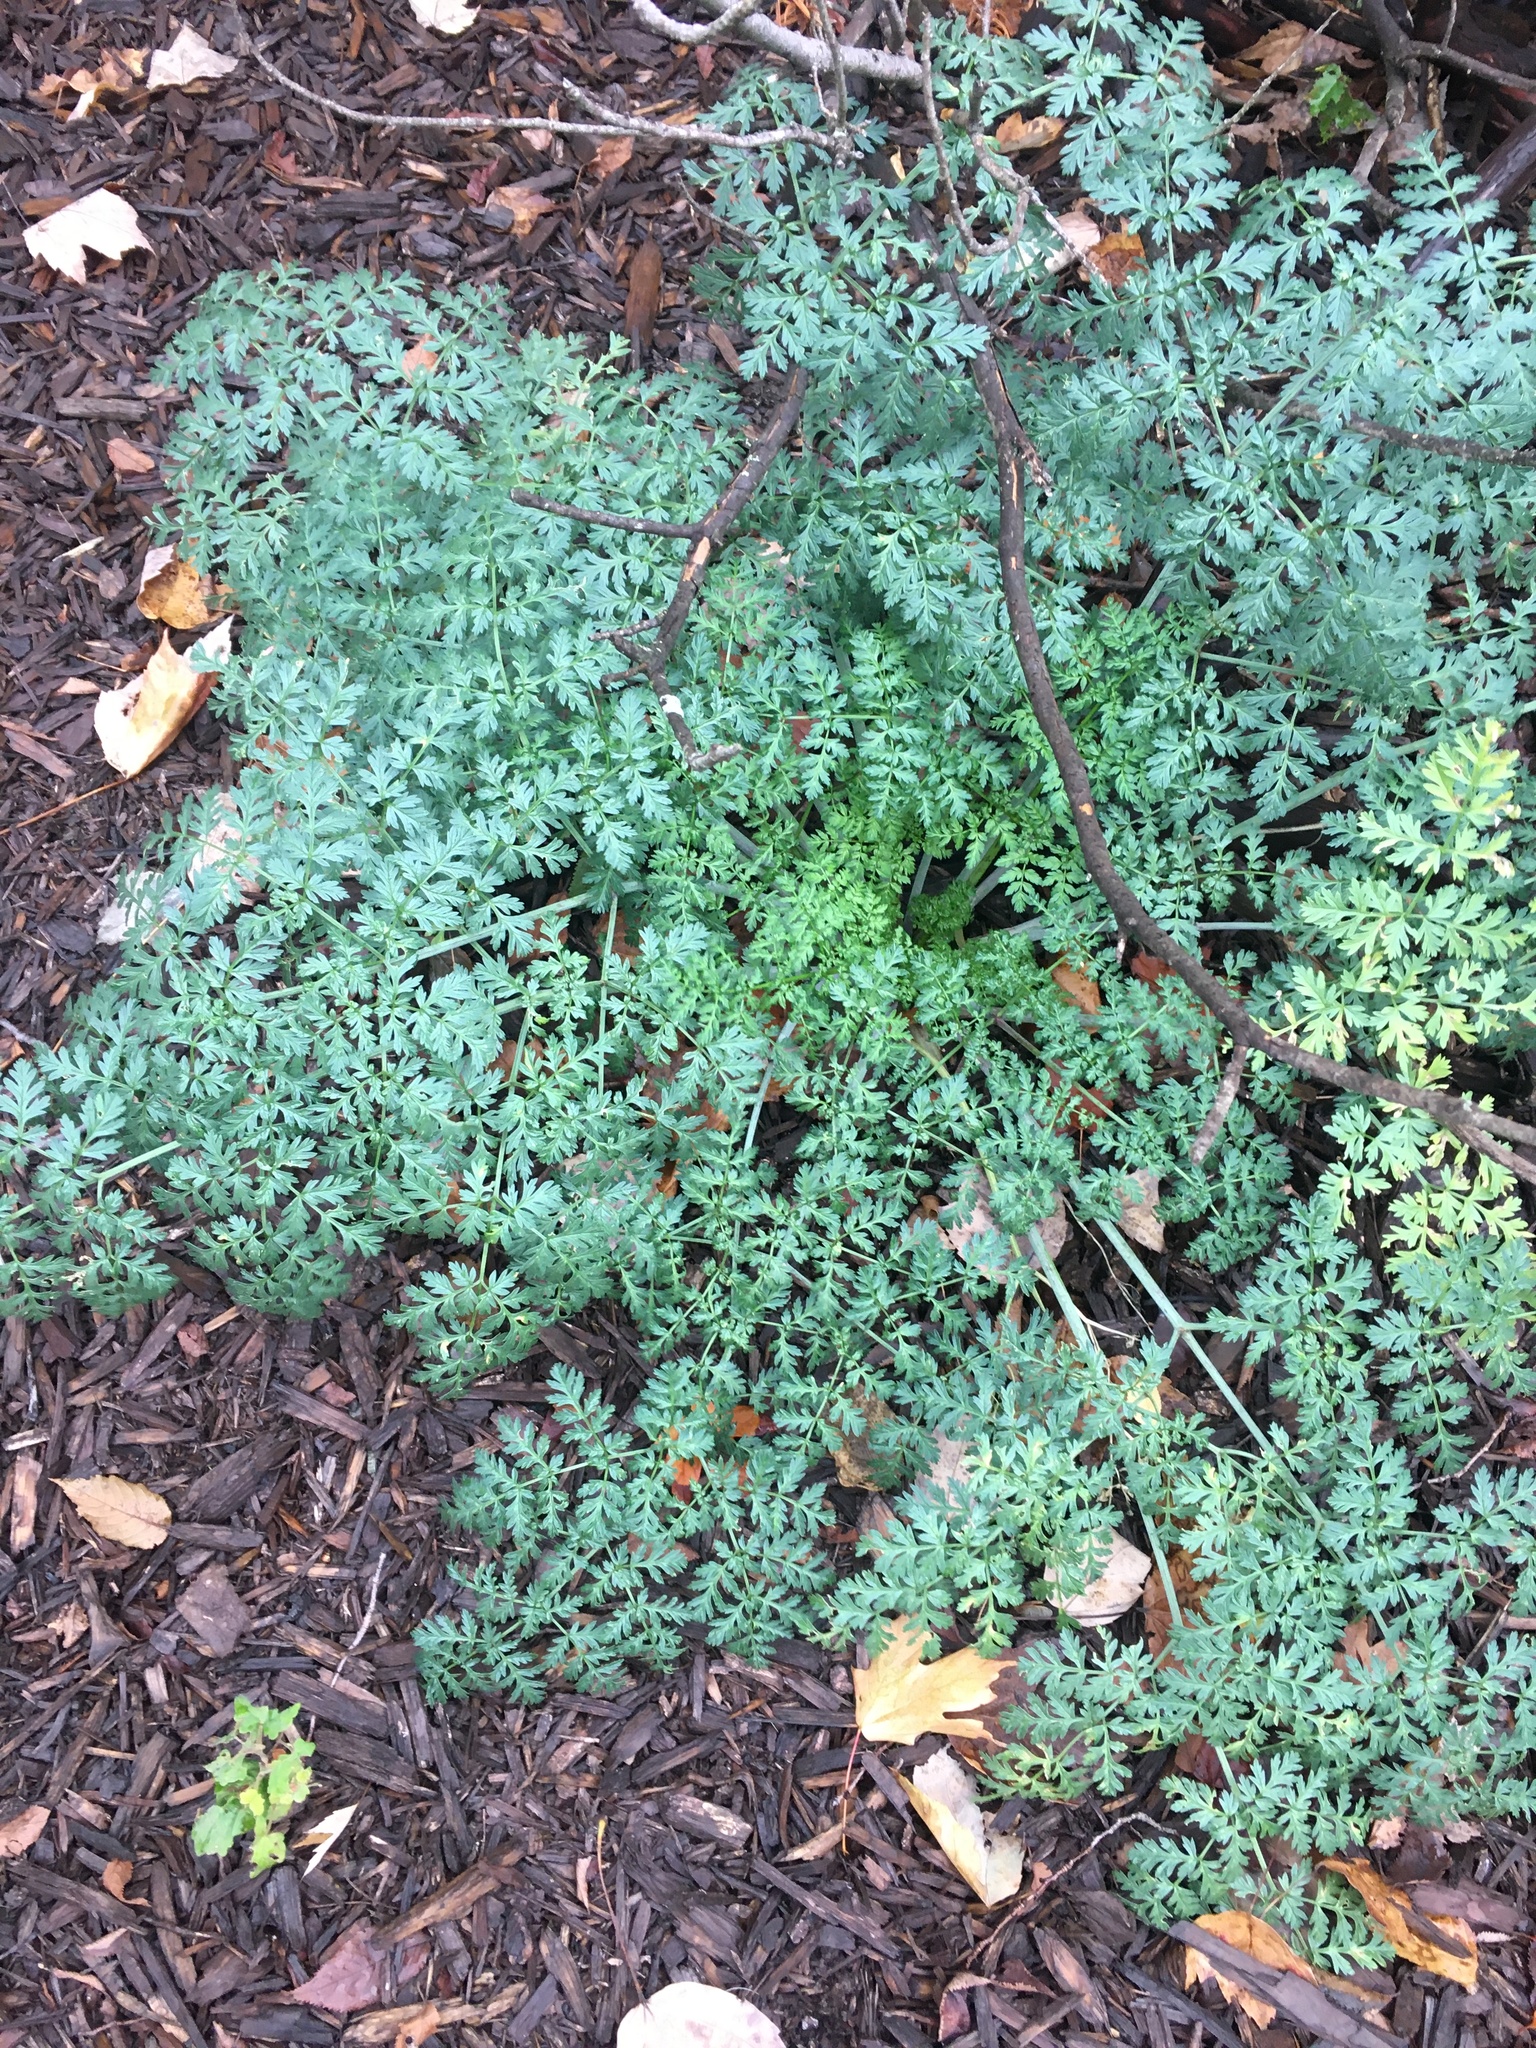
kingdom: Plantae
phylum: Tracheophyta
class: Magnoliopsida
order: Apiales
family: Apiaceae
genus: Conium
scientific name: Conium maculatum
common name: Hemlock
